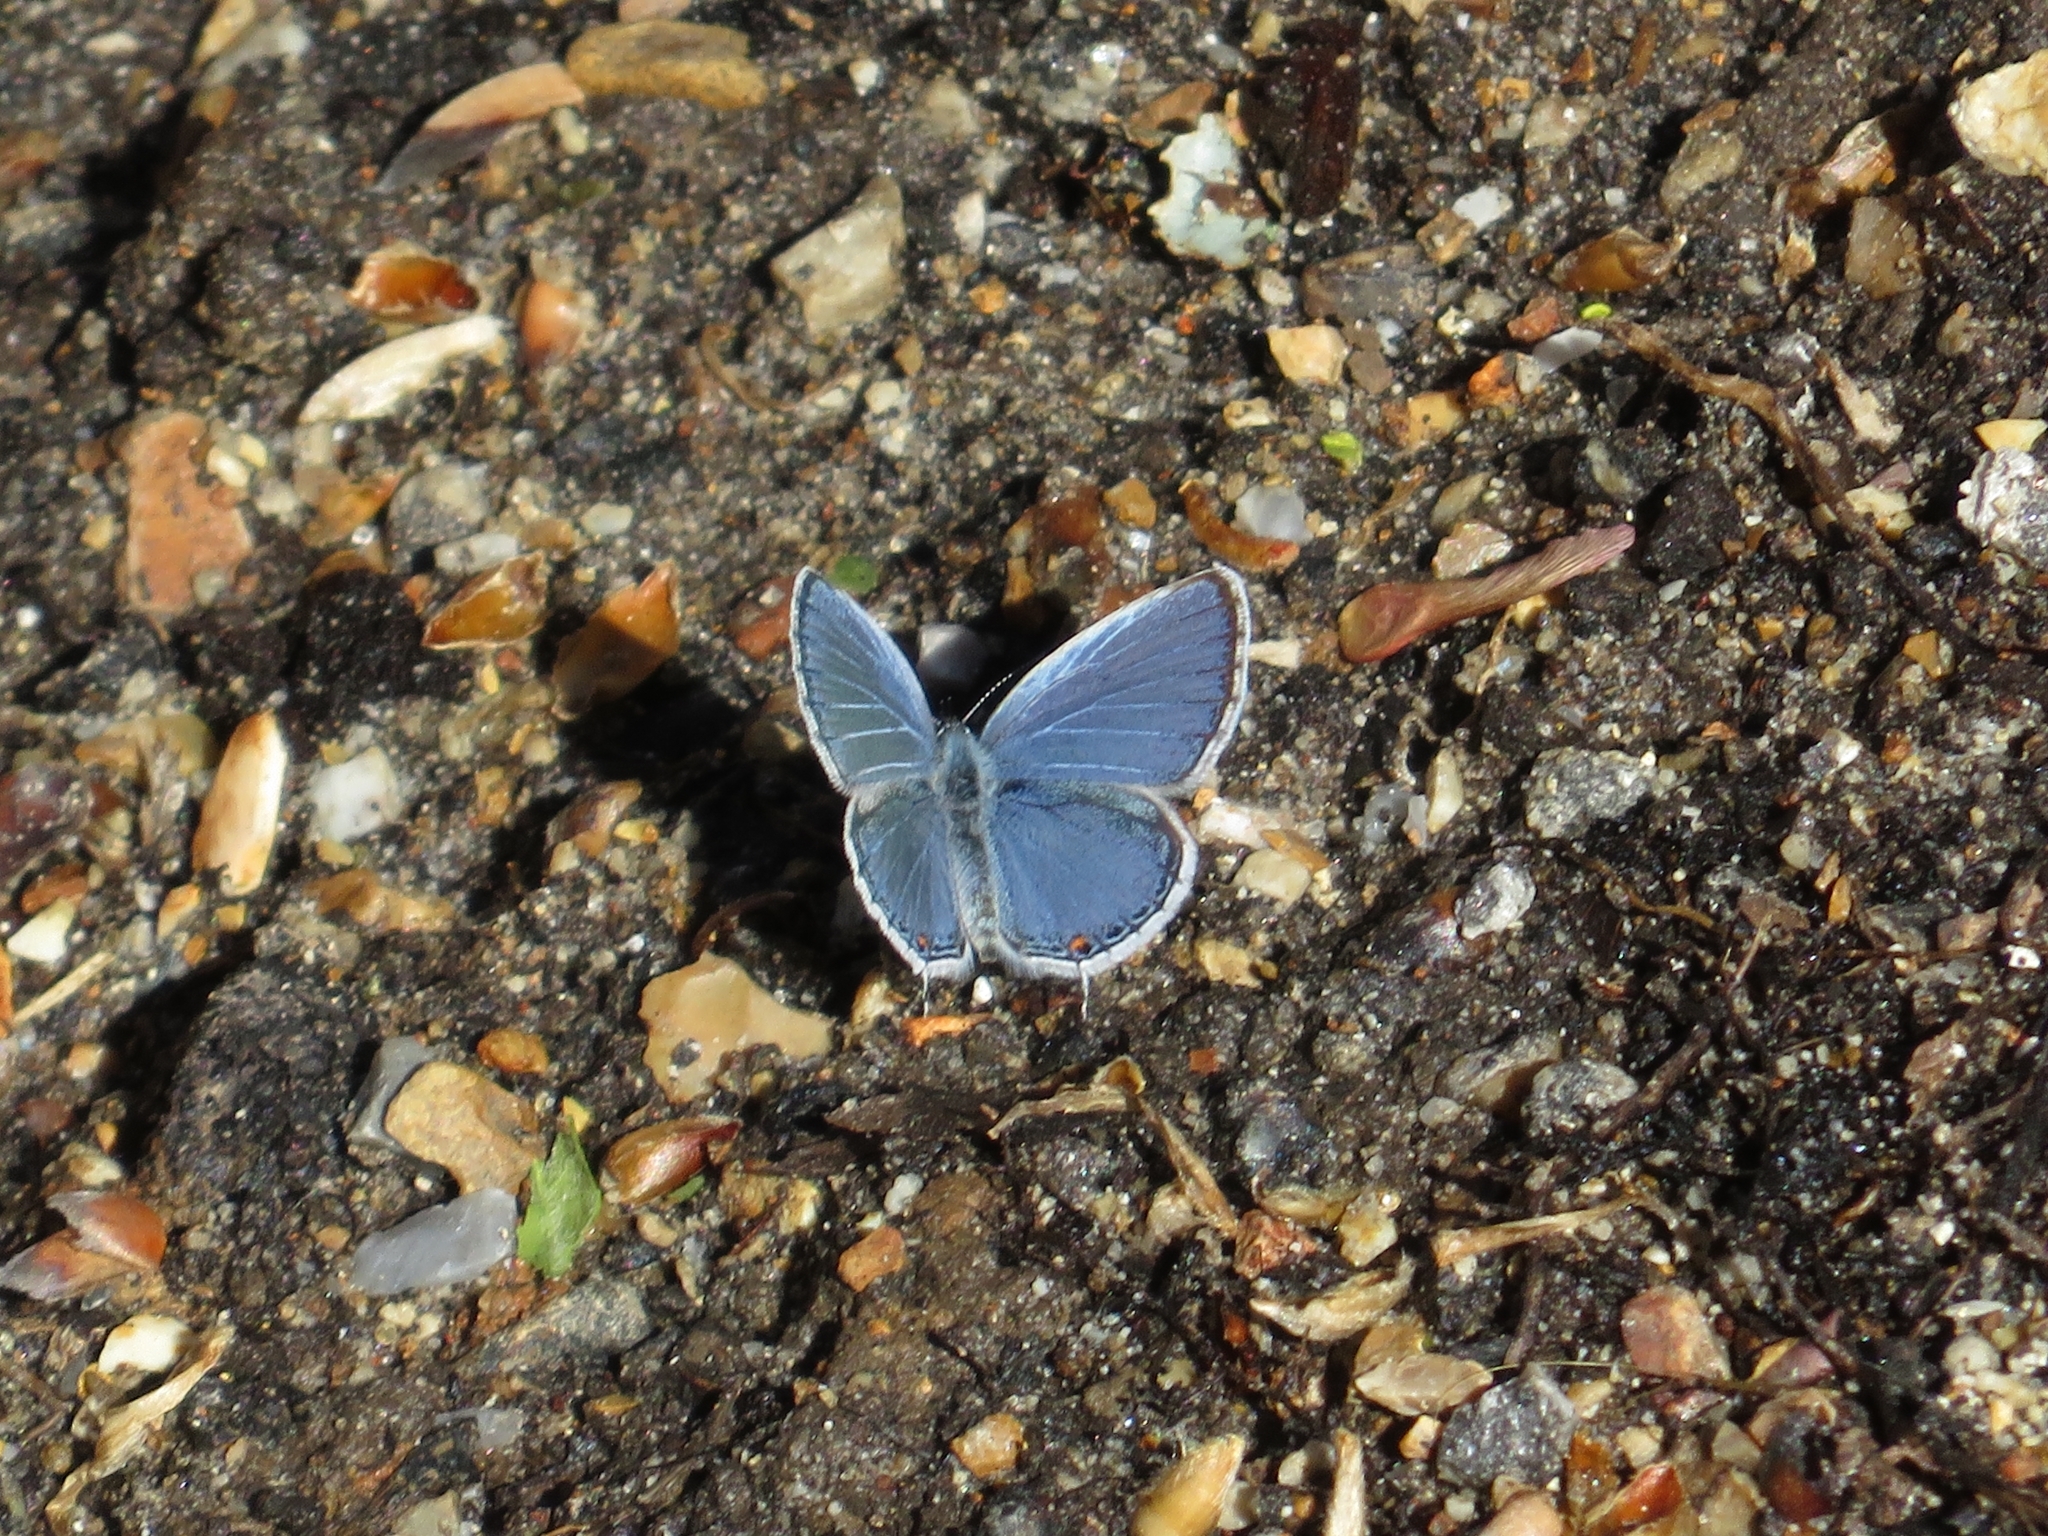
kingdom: Animalia
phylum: Arthropoda
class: Insecta
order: Lepidoptera
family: Lycaenidae
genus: Elkalyce
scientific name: Elkalyce comyntas
